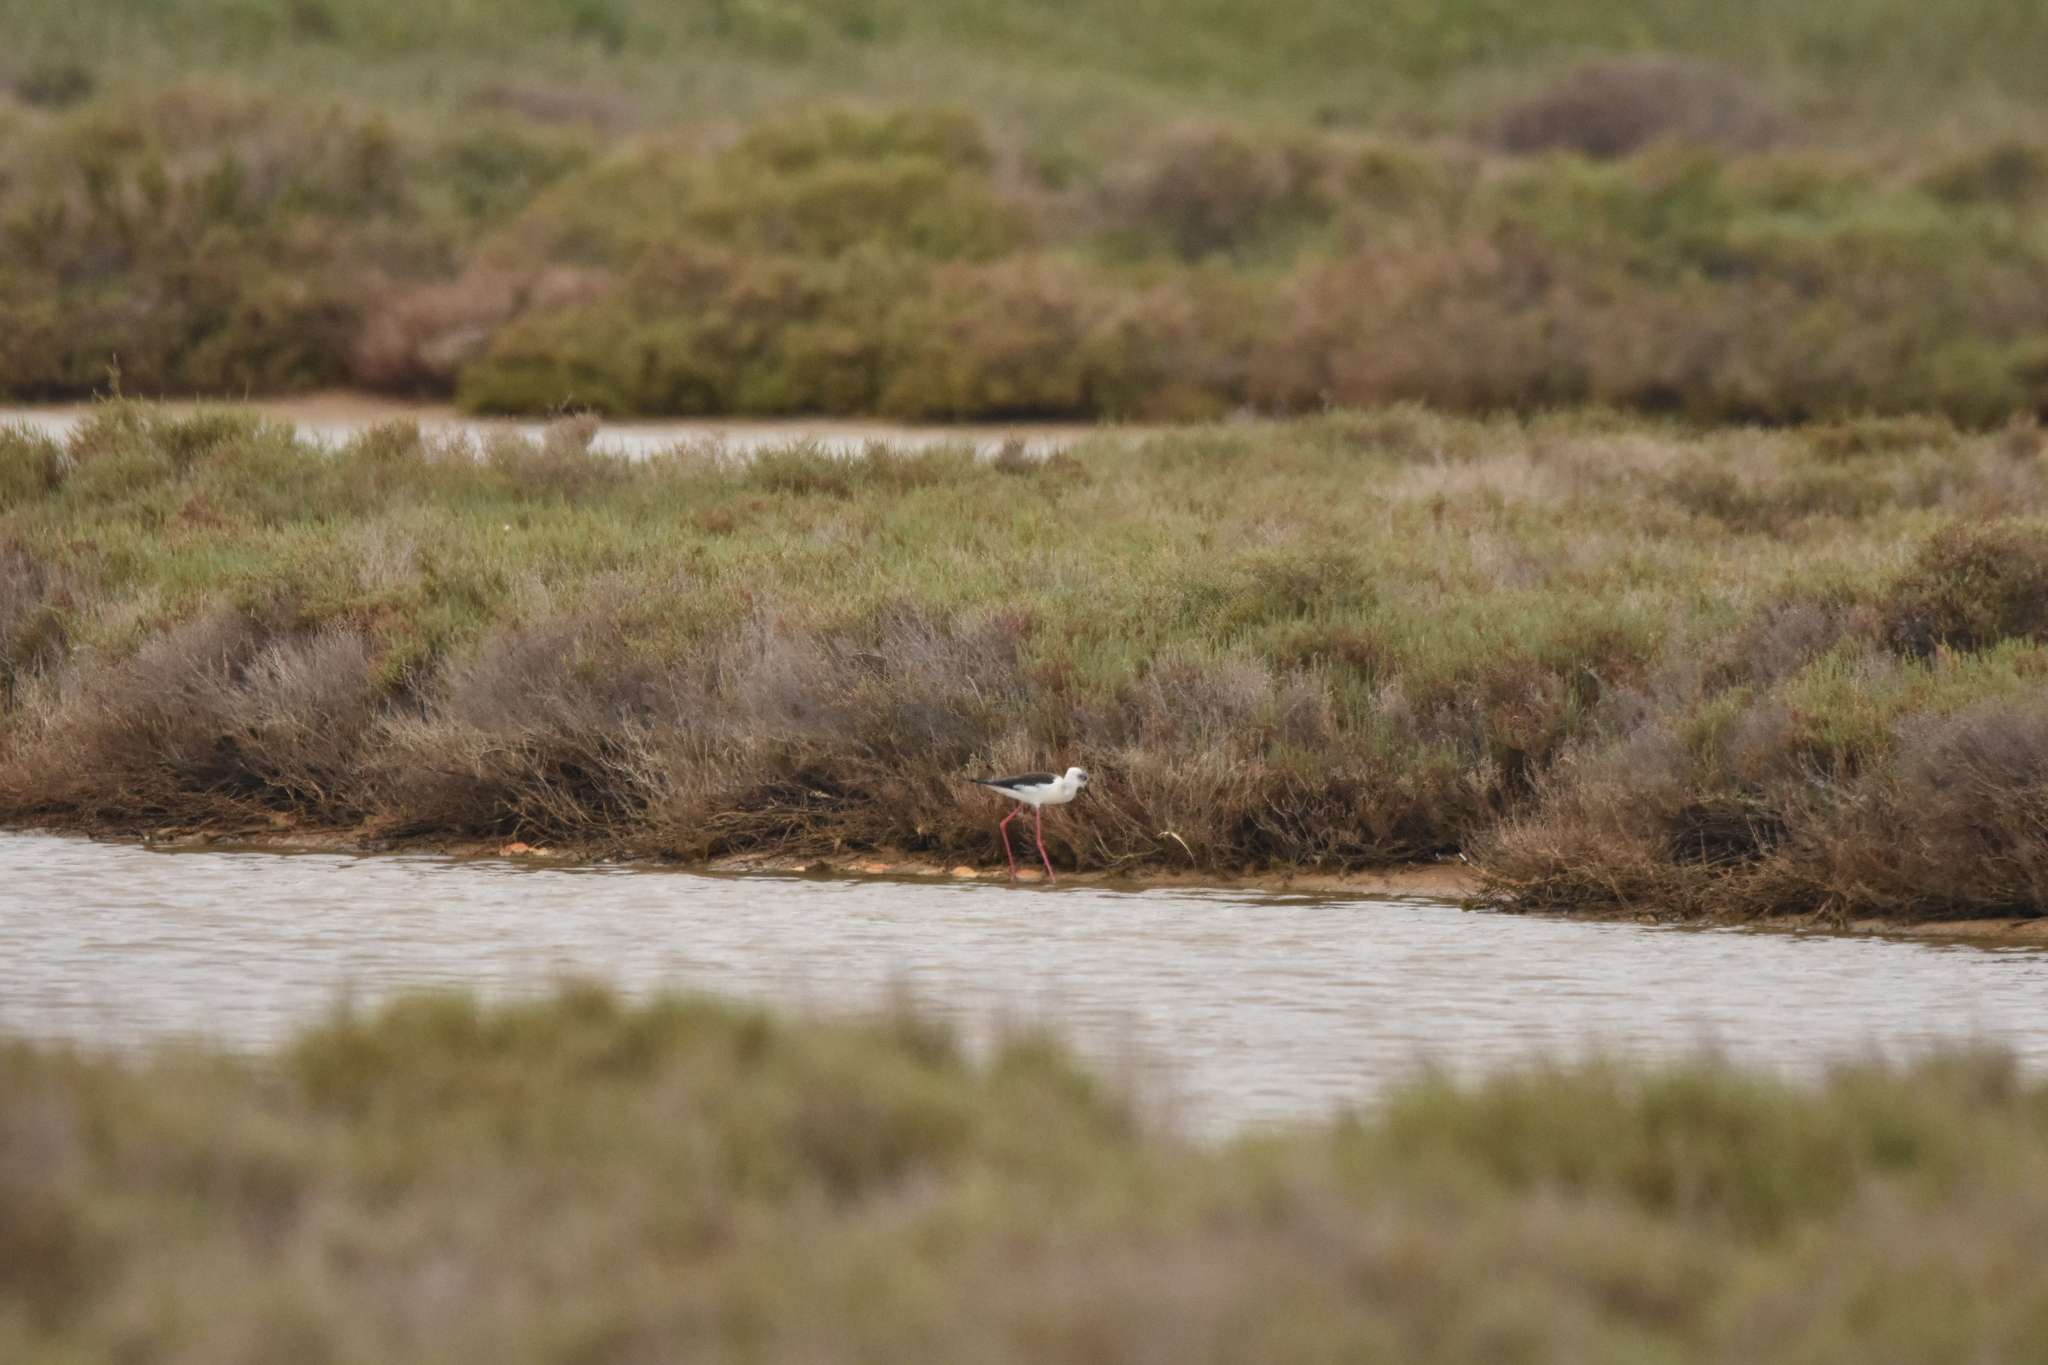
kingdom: Animalia
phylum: Chordata
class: Aves
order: Charadriiformes
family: Recurvirostridae
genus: Himantopus
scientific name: Himantopus himantopus
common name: Black-winged stilt
